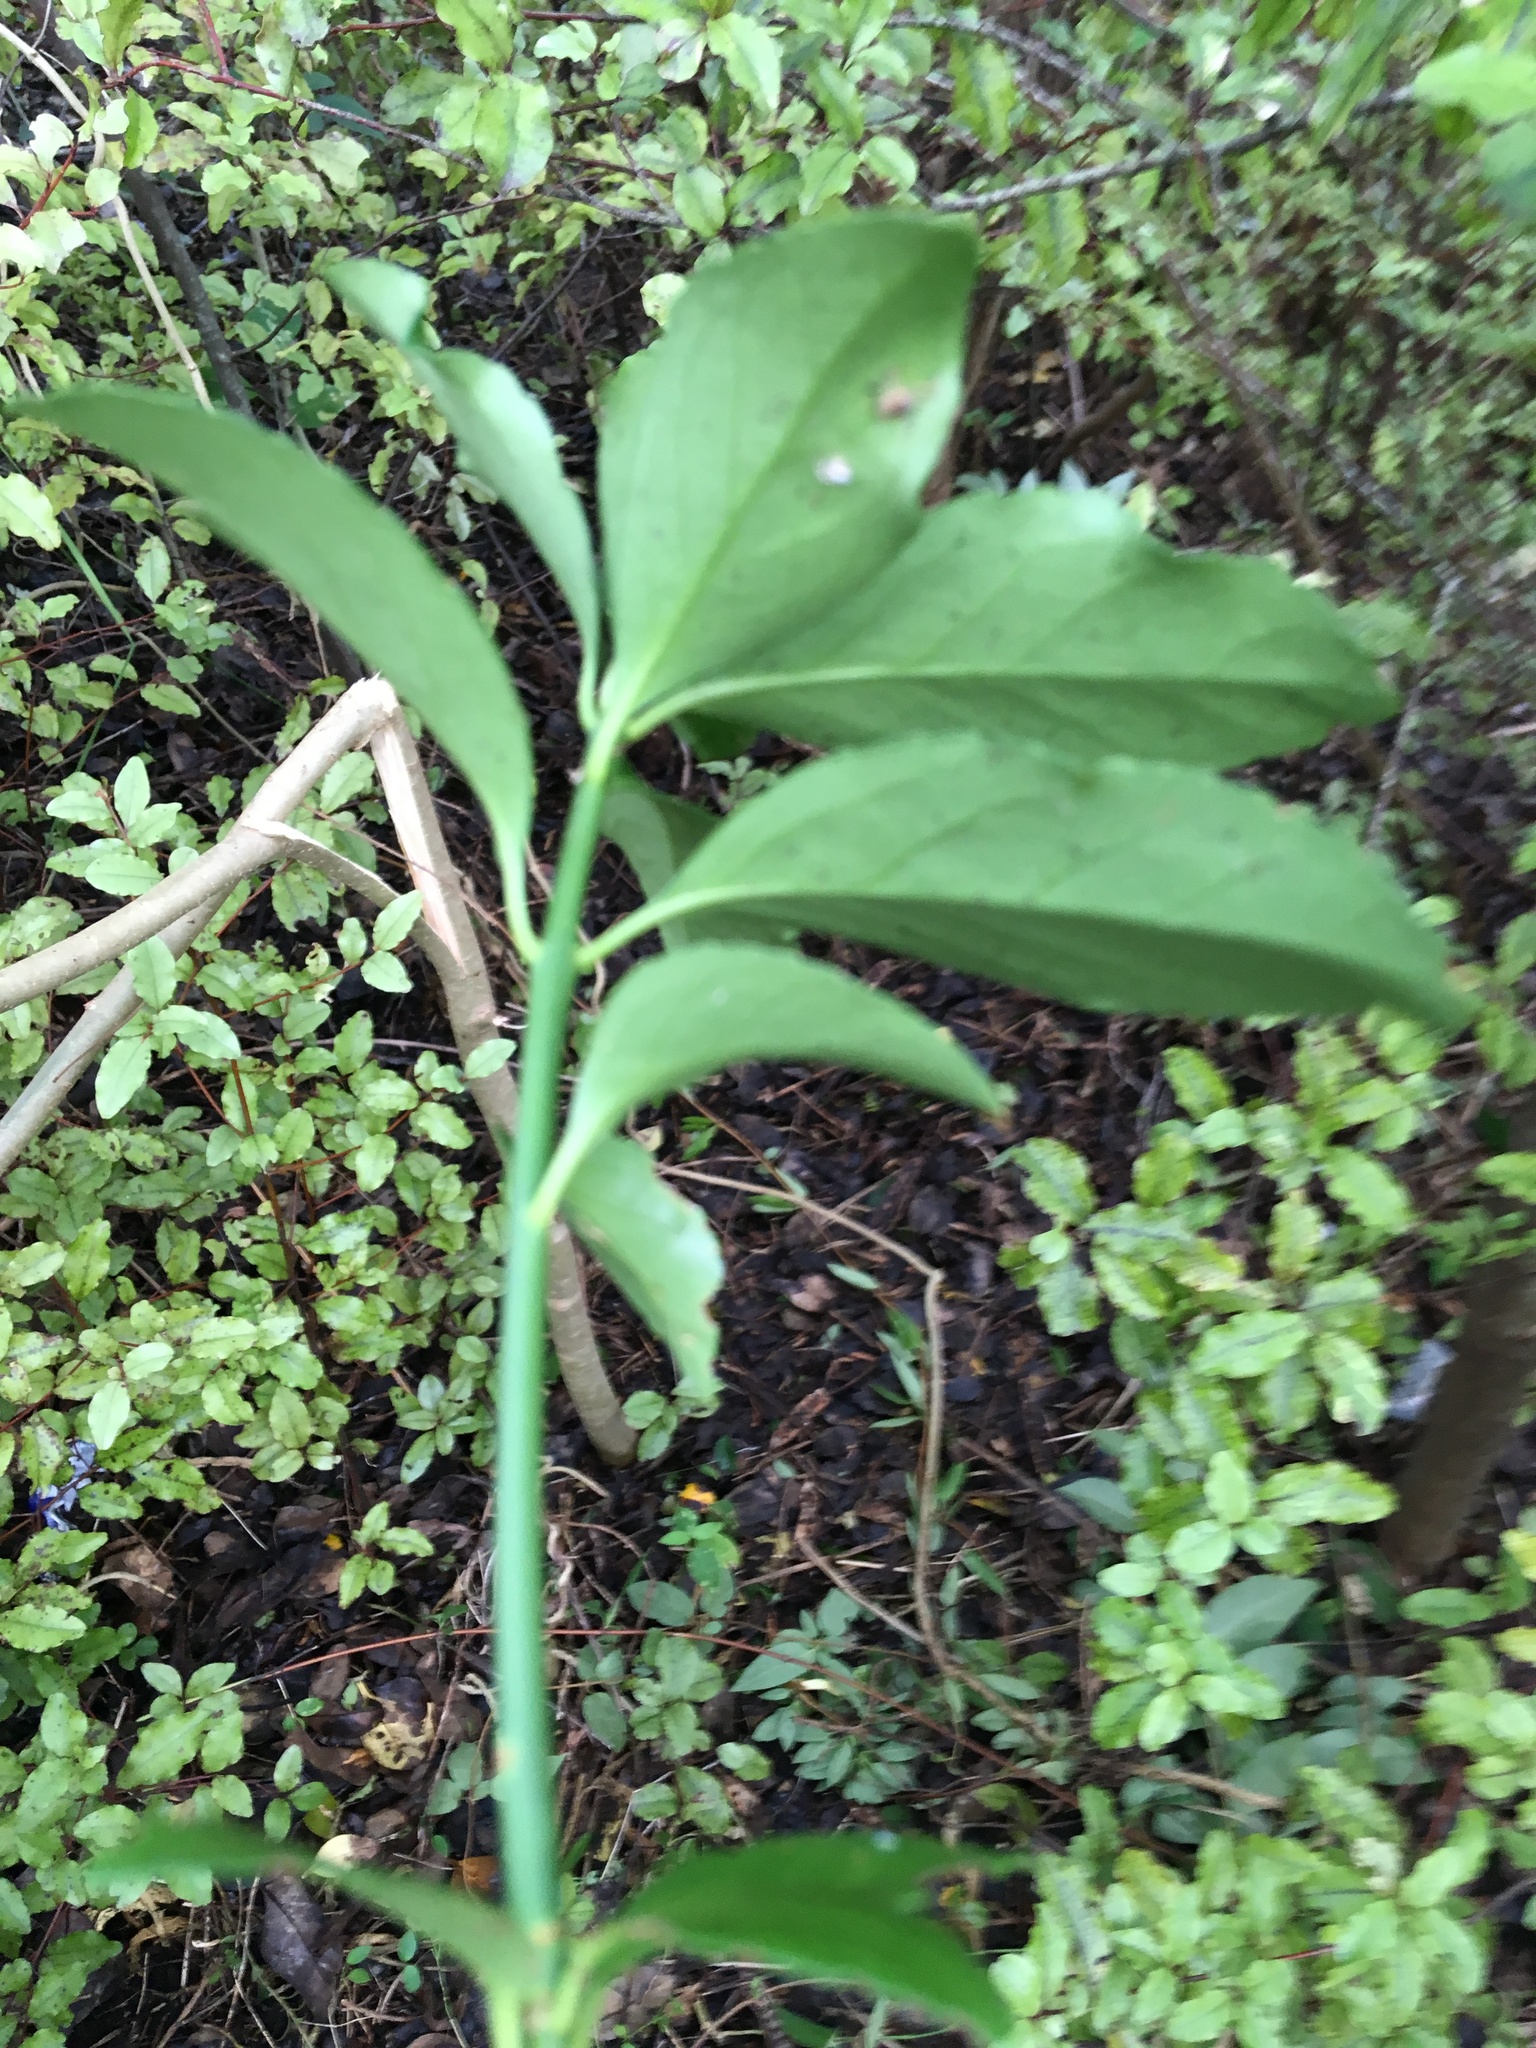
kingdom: Plantae
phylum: Tracheophyta
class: Magnoliopsida
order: Celastrales
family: Celastraceae
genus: Euonymus
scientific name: Euonymus japonicus
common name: Japanese spindletree
